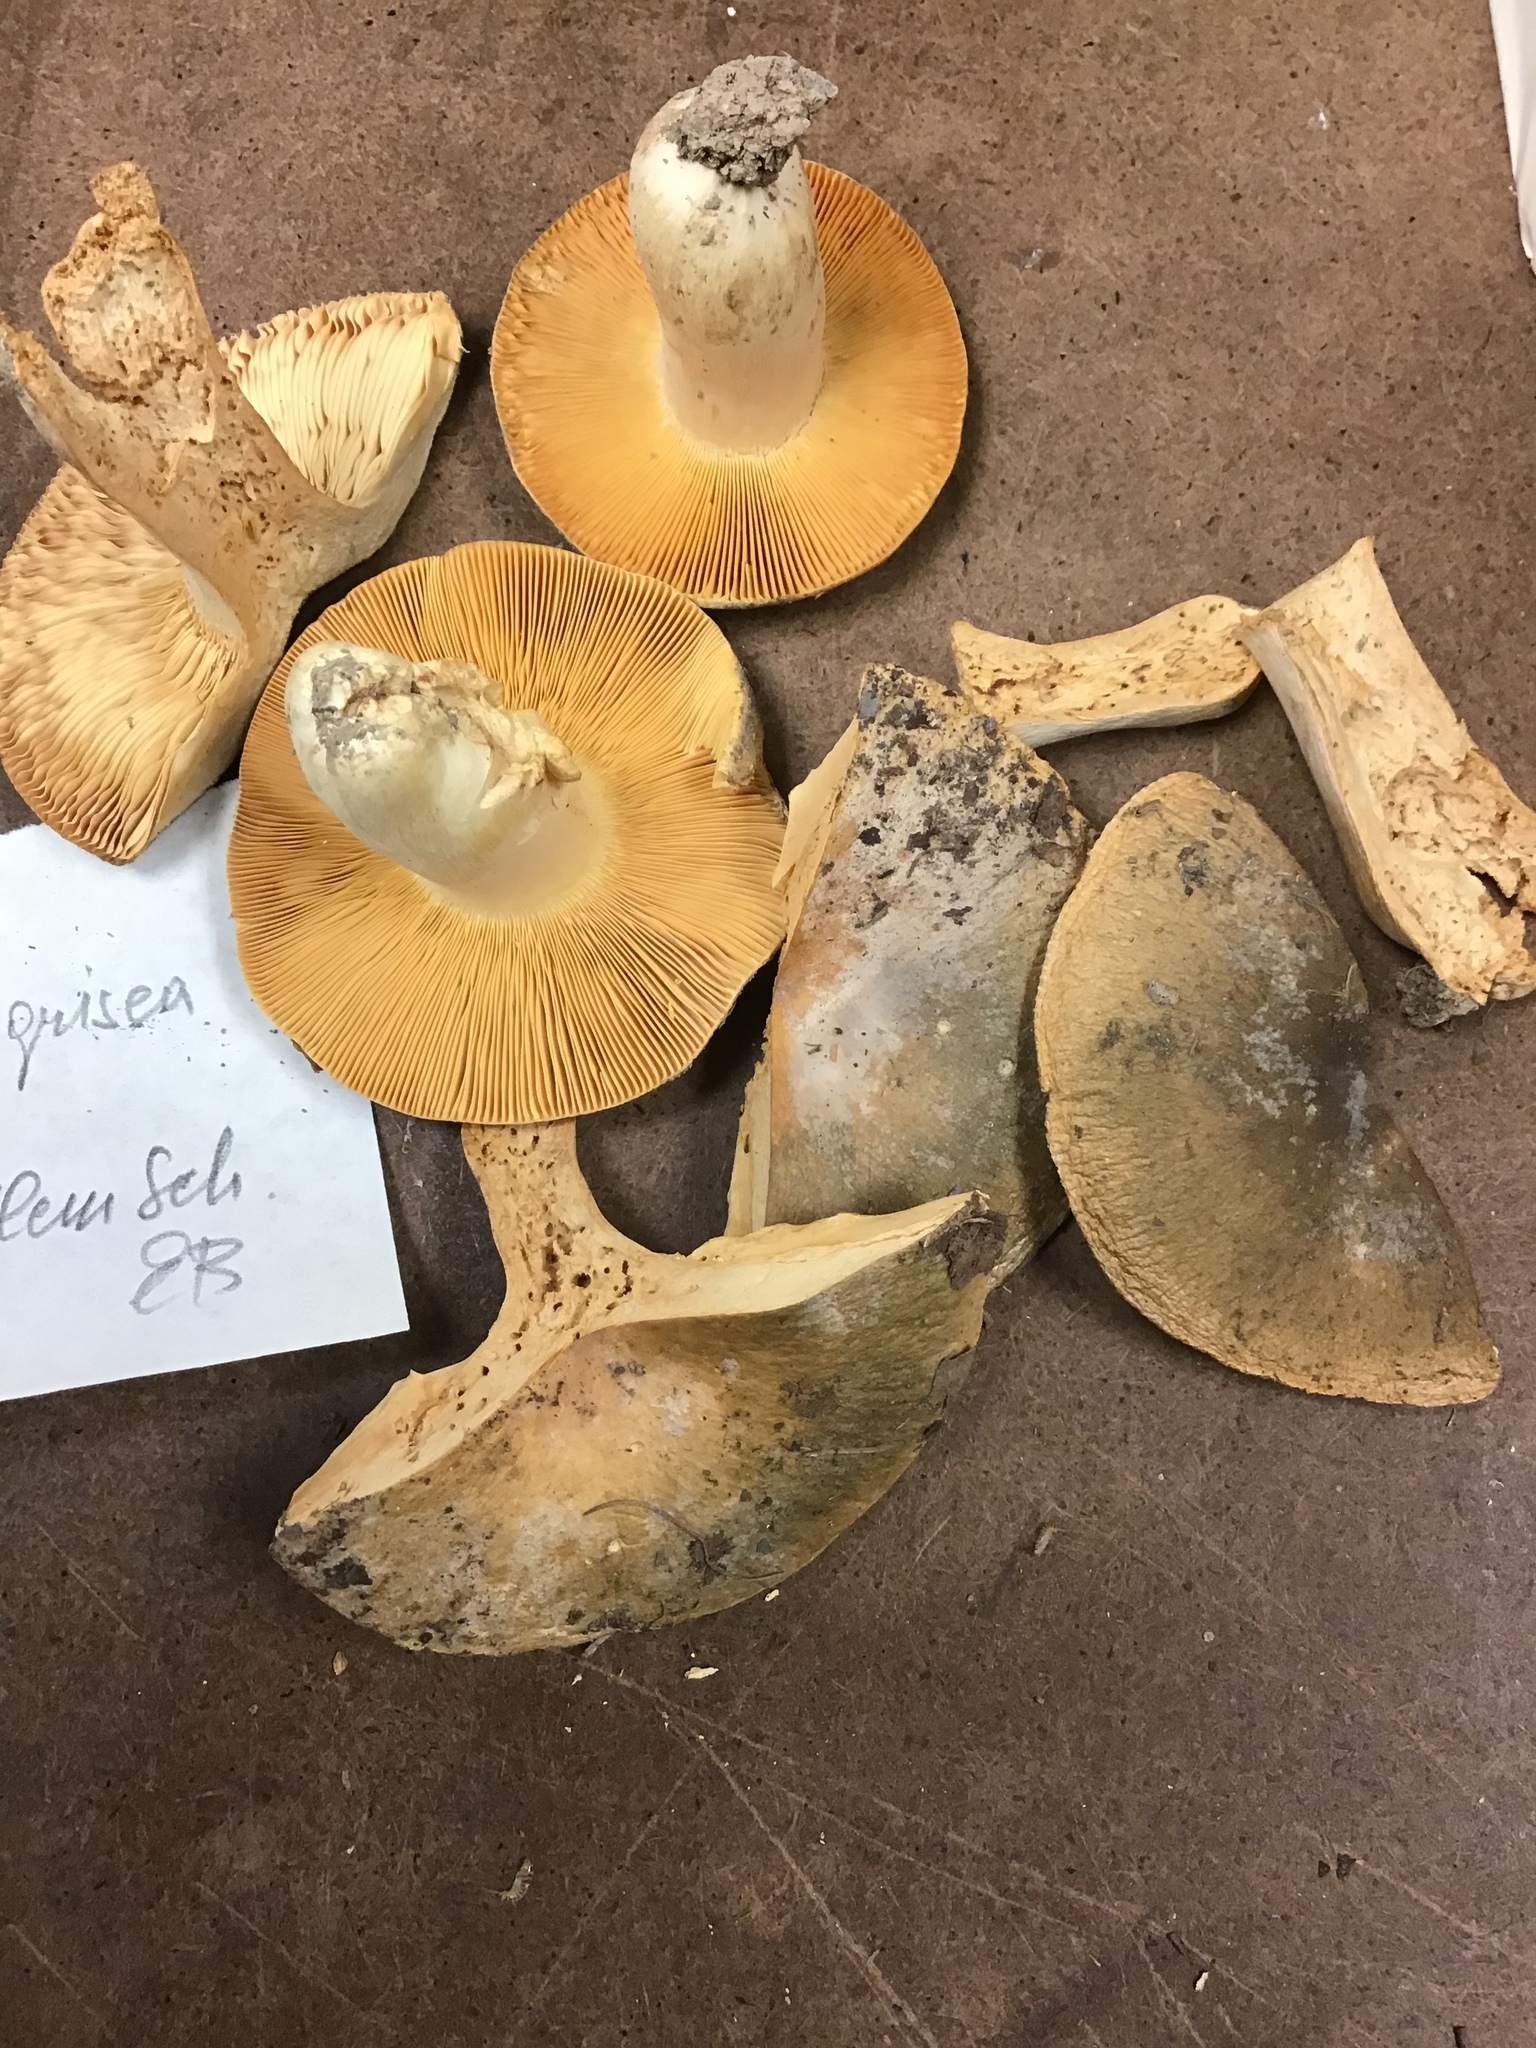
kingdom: Fungi
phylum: Basidiomycota
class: Agaricomycetes
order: Russulales
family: Russulaceae
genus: Russula
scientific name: Russula grisea
